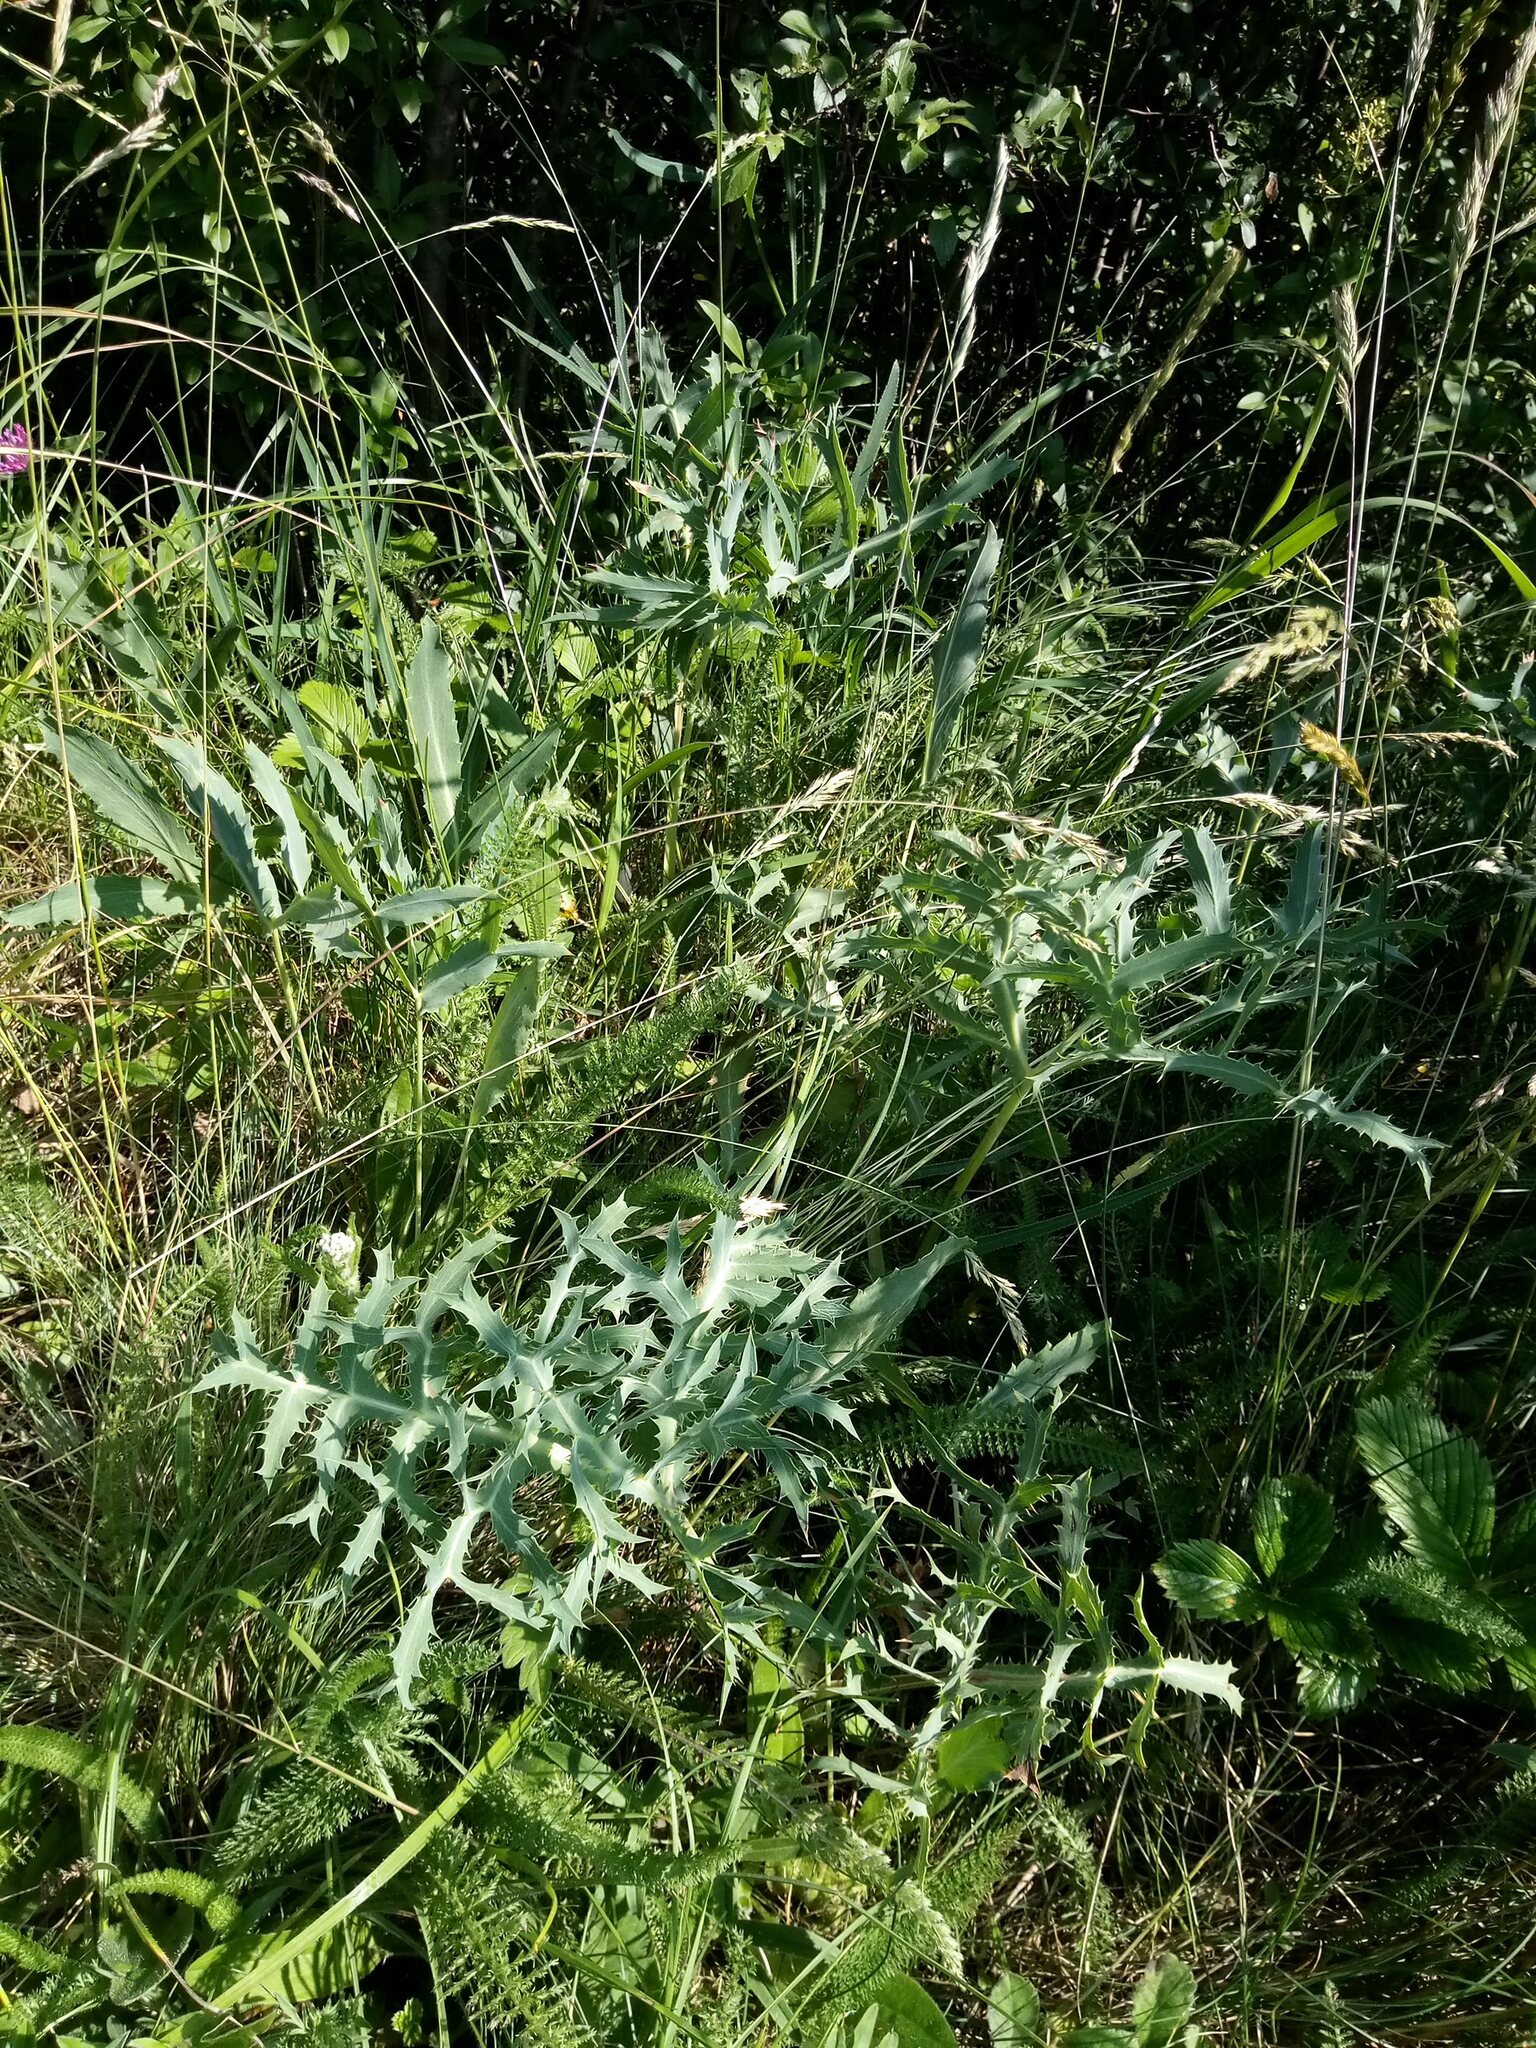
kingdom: Plantae
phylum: Tracheophyta
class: Magnoliopsida
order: Apiales
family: Apiaceae
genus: Eryngium
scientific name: Eryngium campestre
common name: Field eryngo
